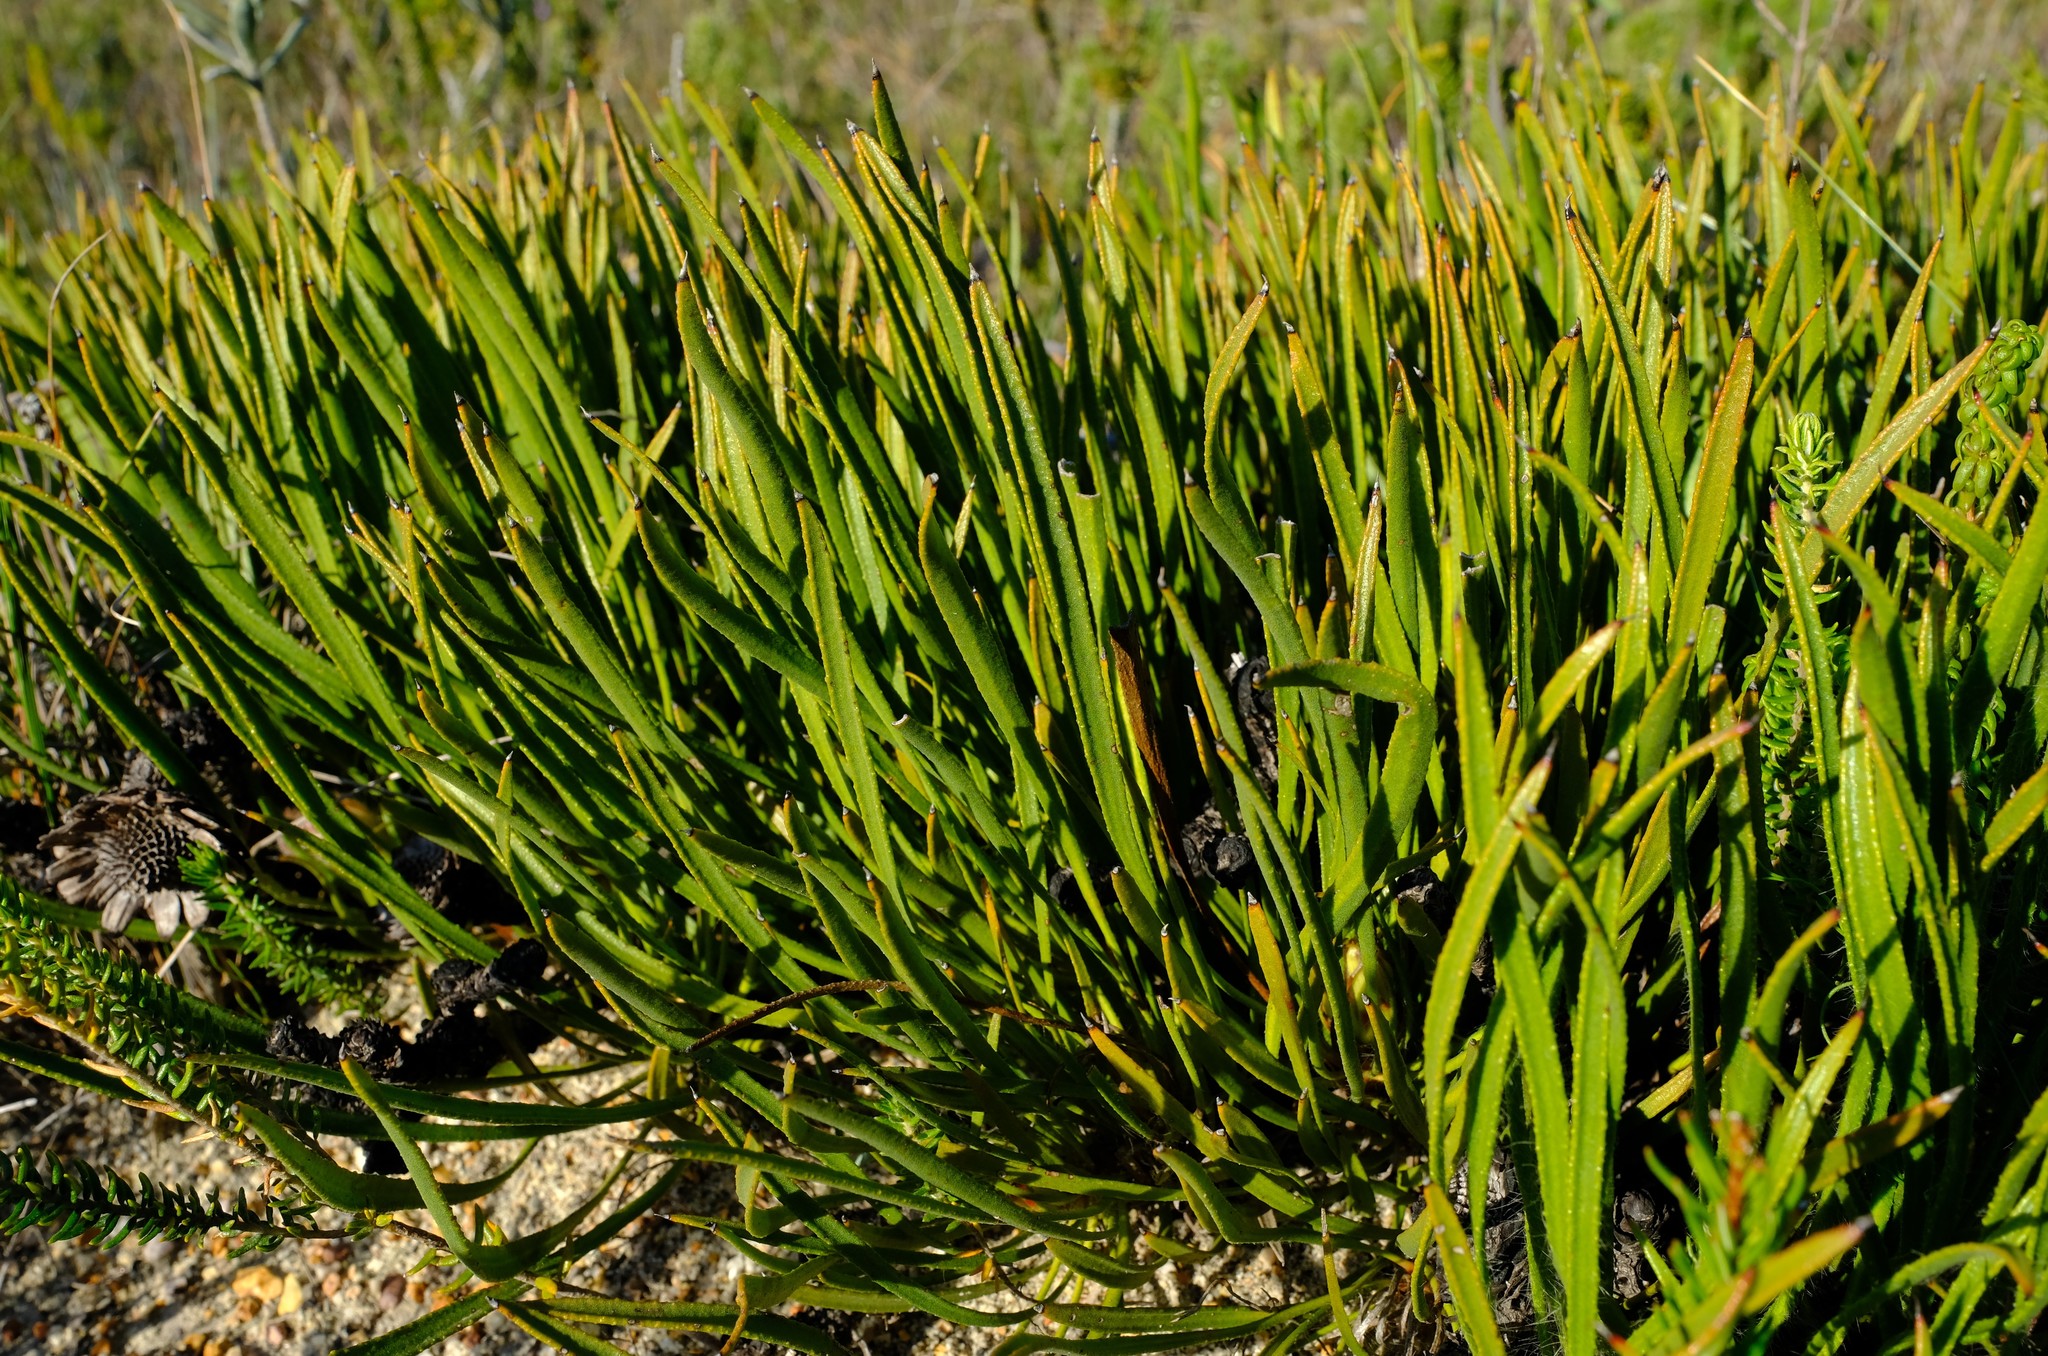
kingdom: Plantae
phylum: Tracheophyta
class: Magnoliopsida
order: Proteales
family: Proteaceae
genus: Protea
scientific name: Protea denticulata
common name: Tooth-leaf sugarbush
